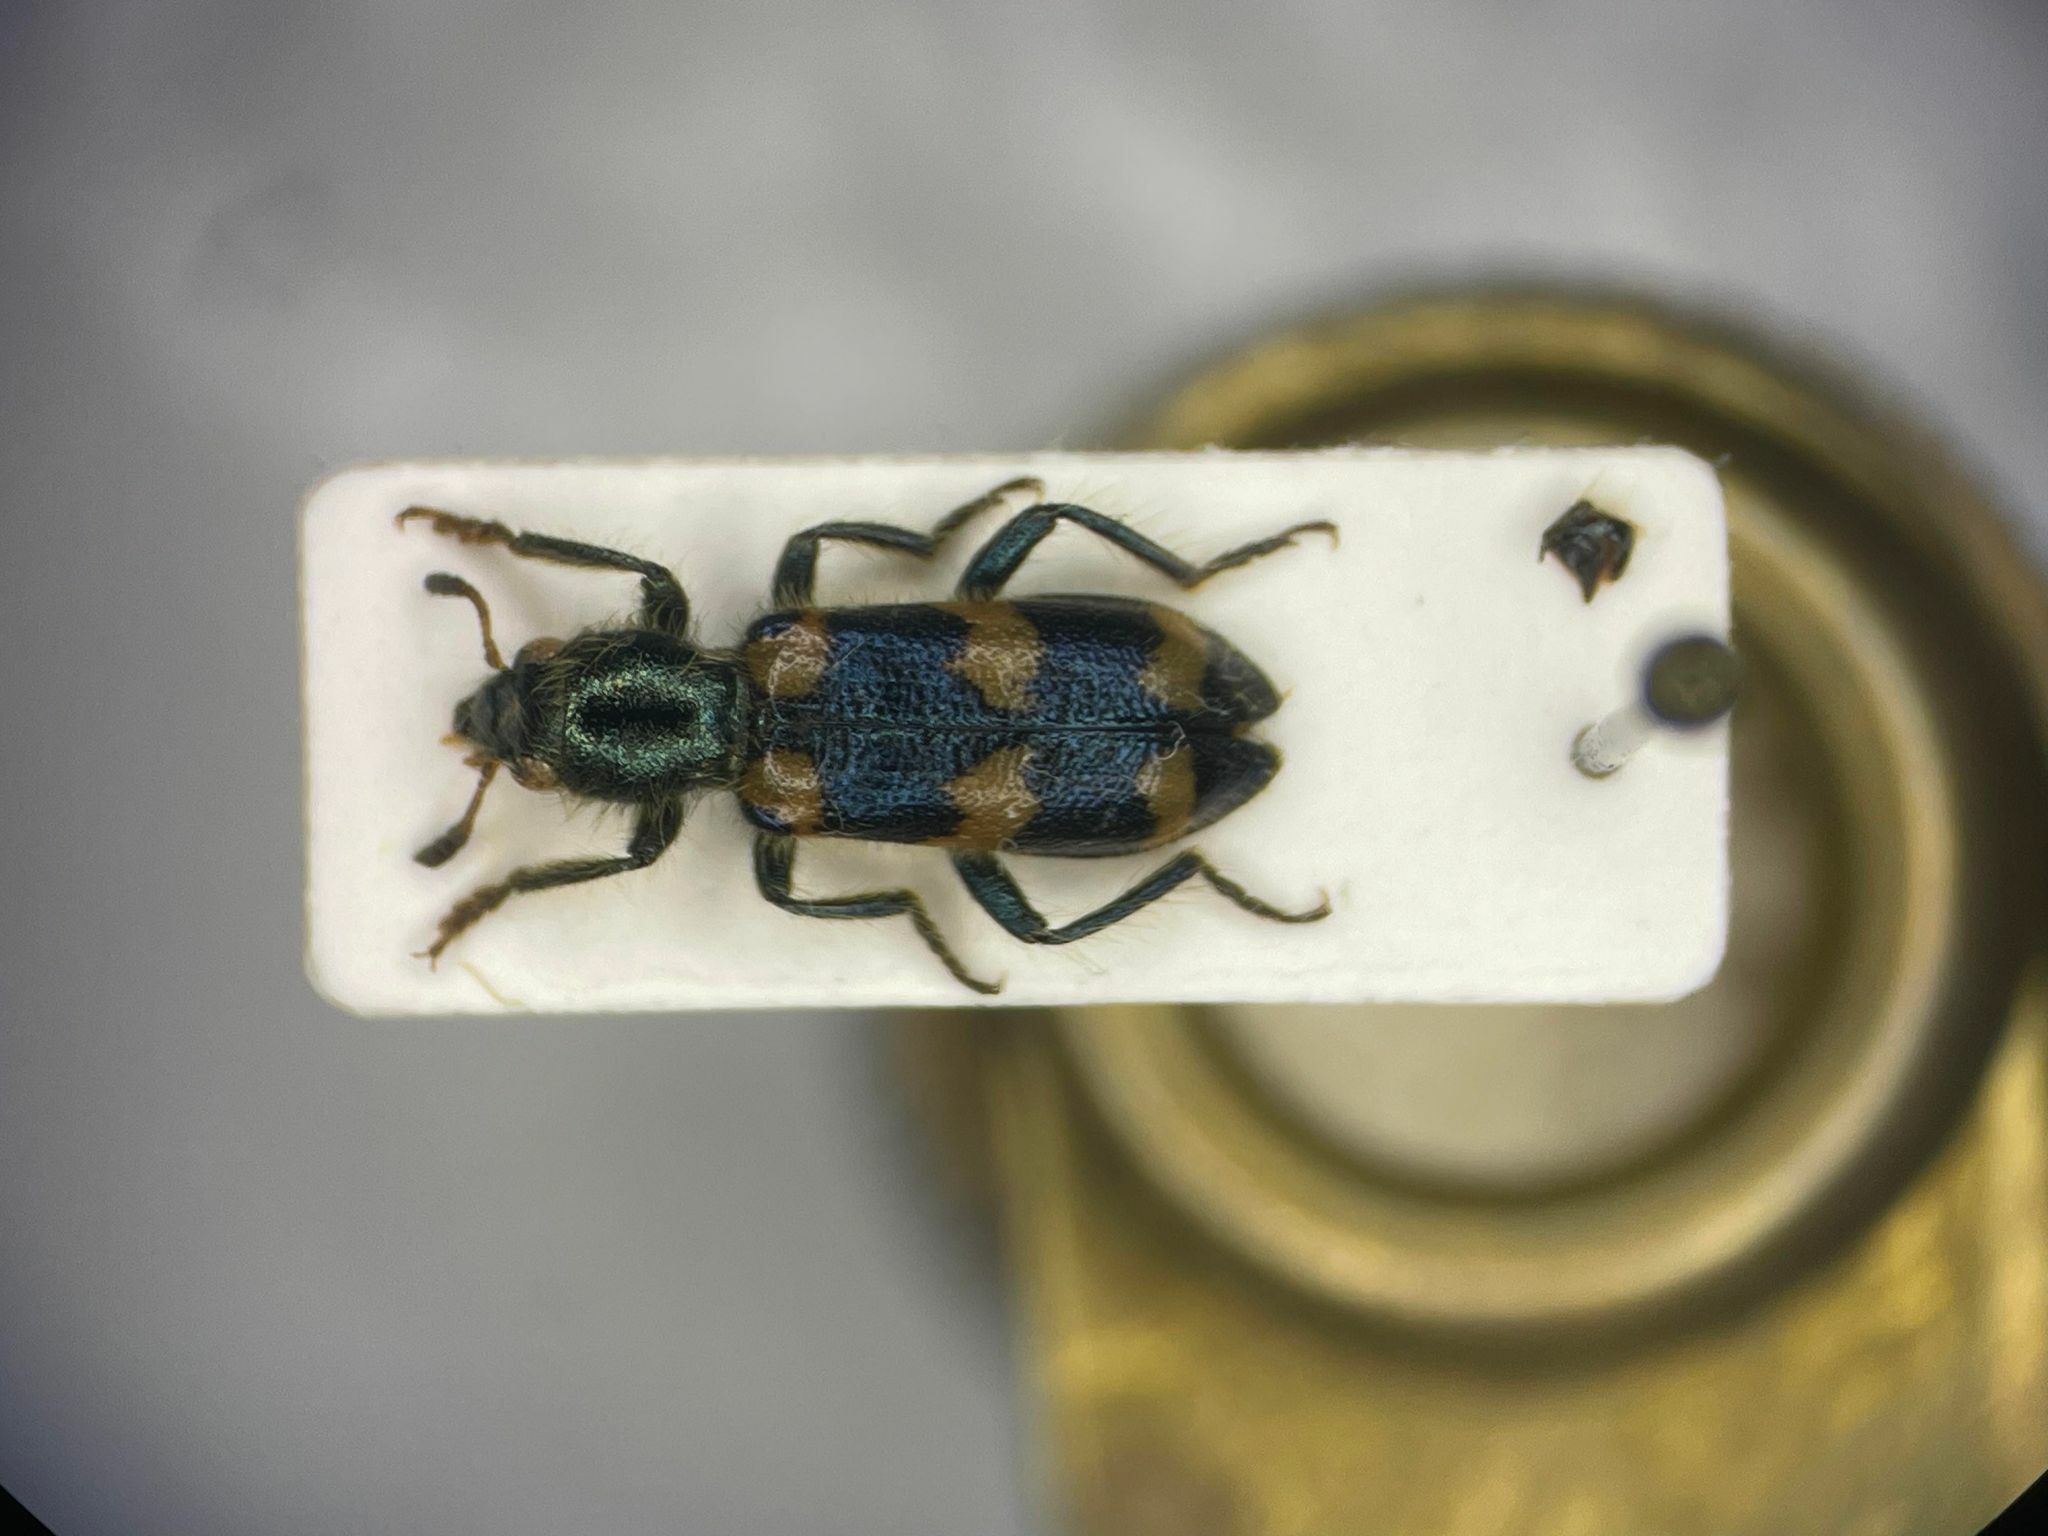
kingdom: Animalia
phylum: Arthropoda
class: Insecta
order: Coleoptera
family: Cleridae
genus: Trichodes
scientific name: Trichodes nutalli
